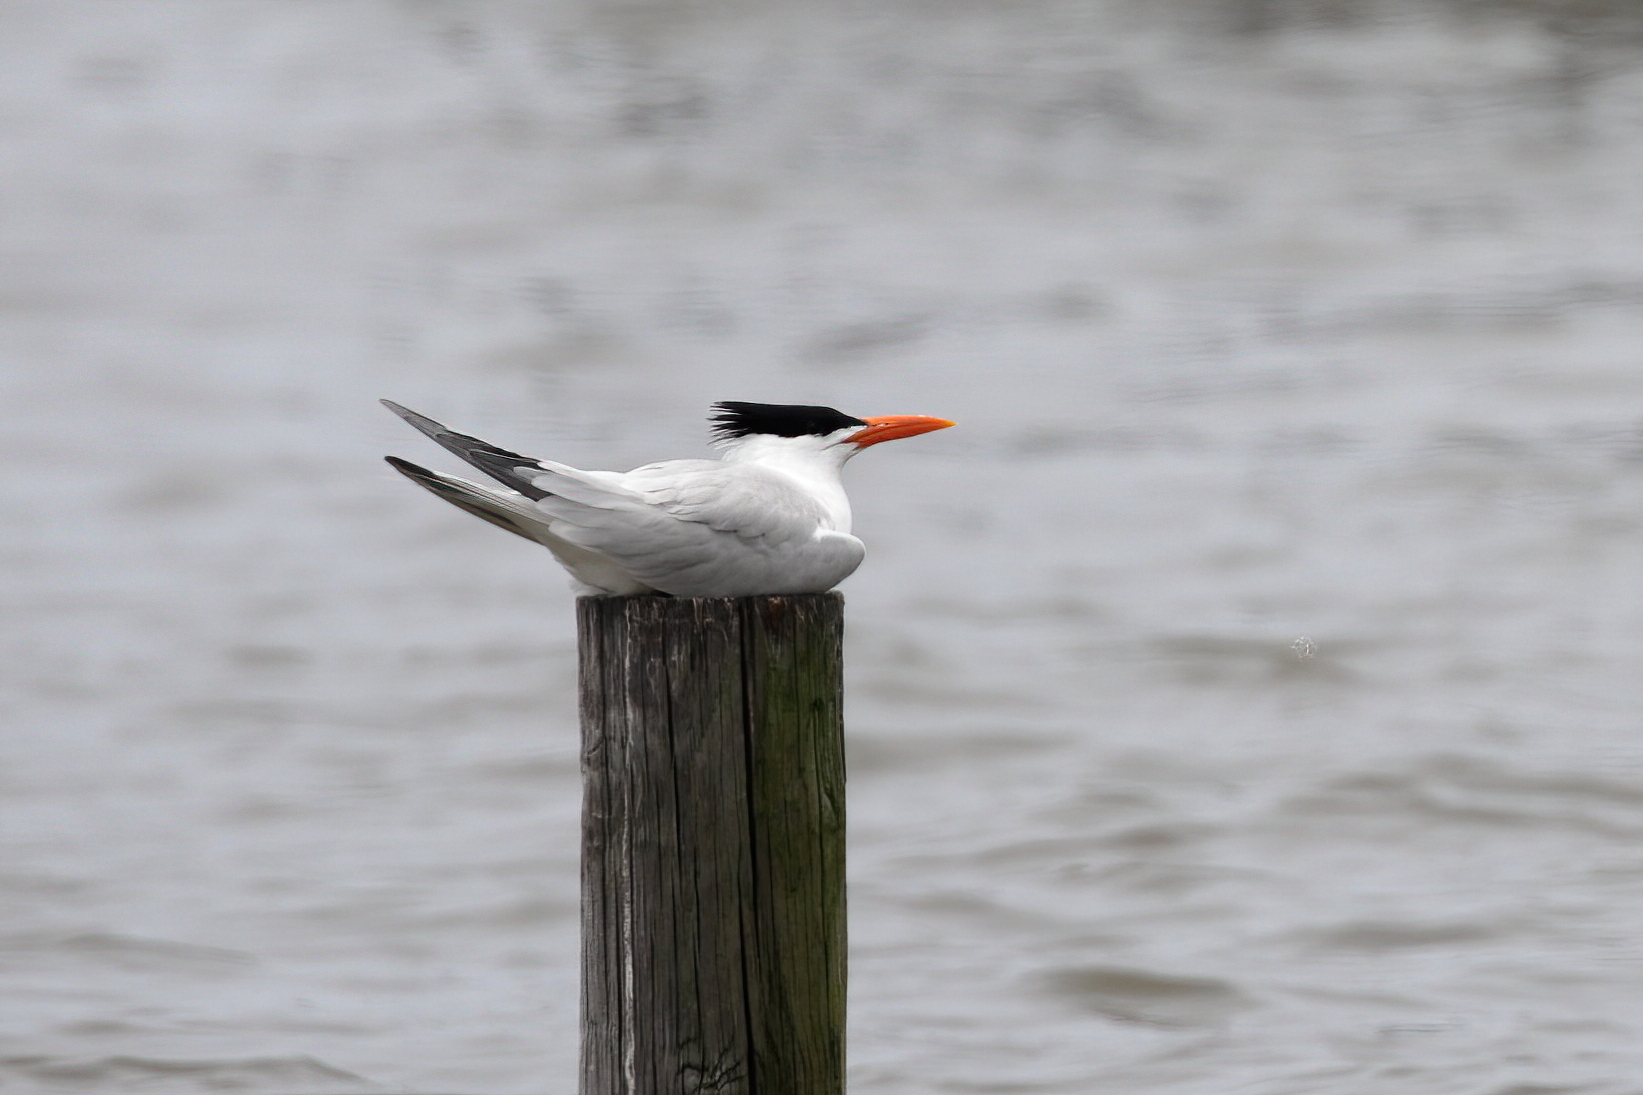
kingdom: Animalia
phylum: Chordata
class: Aves
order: Charadriiformes
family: Laridae
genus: Thalasseus
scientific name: Thalasseus maximus
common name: Royal tern
